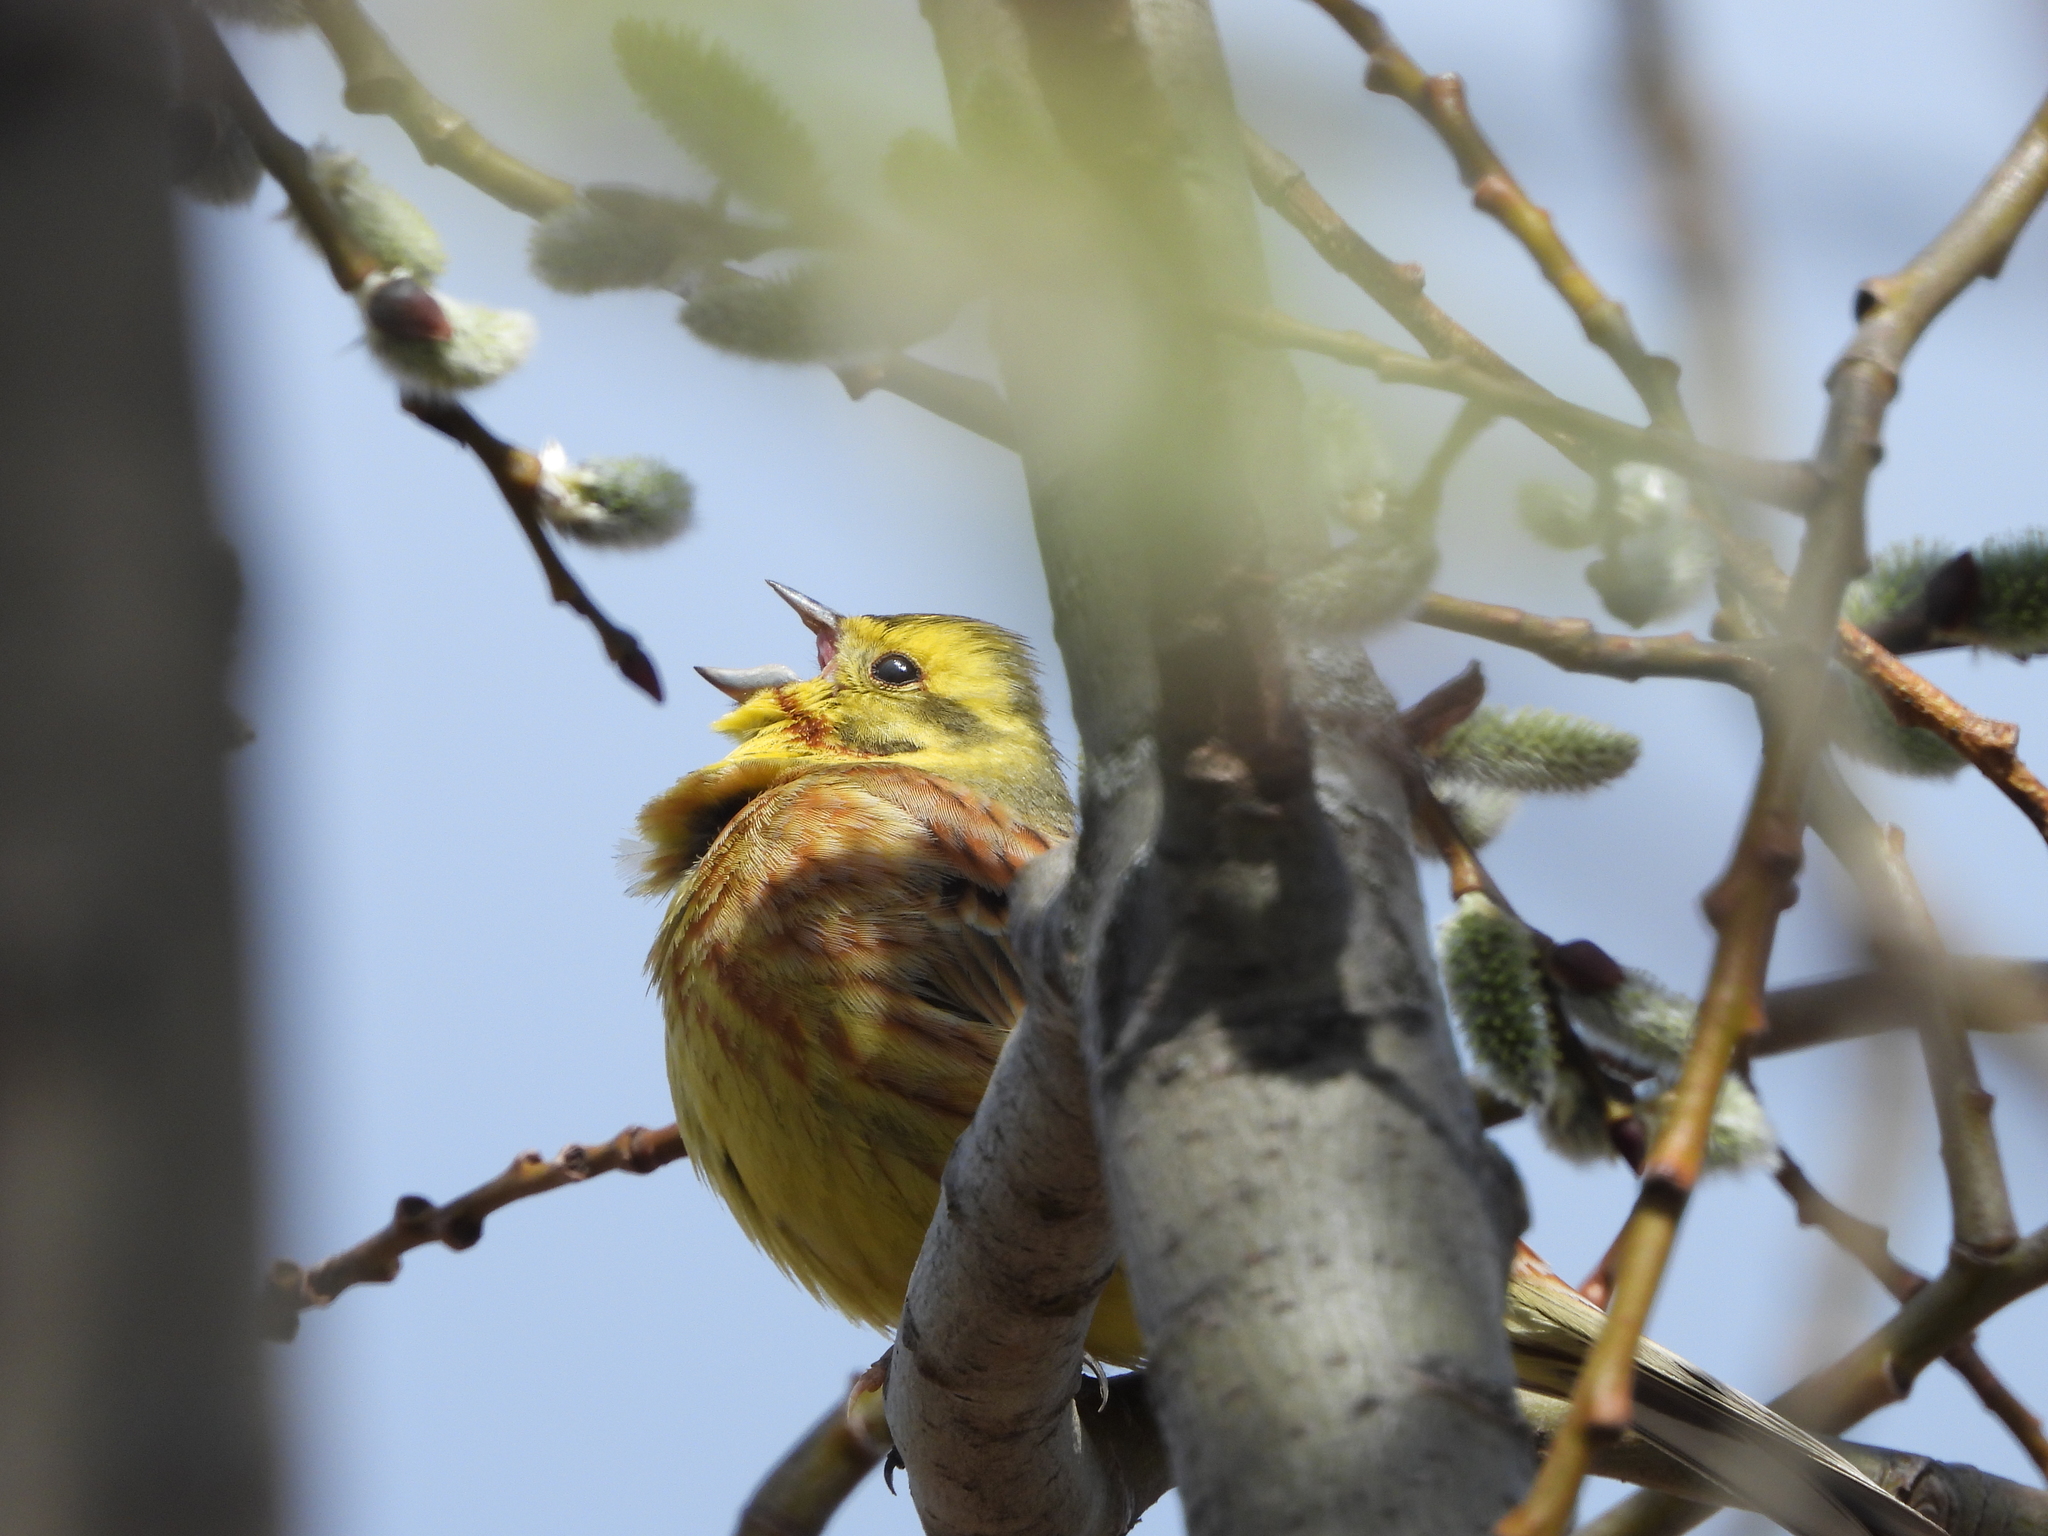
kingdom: Animalia
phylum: Chordata
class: Aves
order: Passeriformes
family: Emberizidae
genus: Emberiza
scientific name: Emberiza citrinella
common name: Yellowhammer
